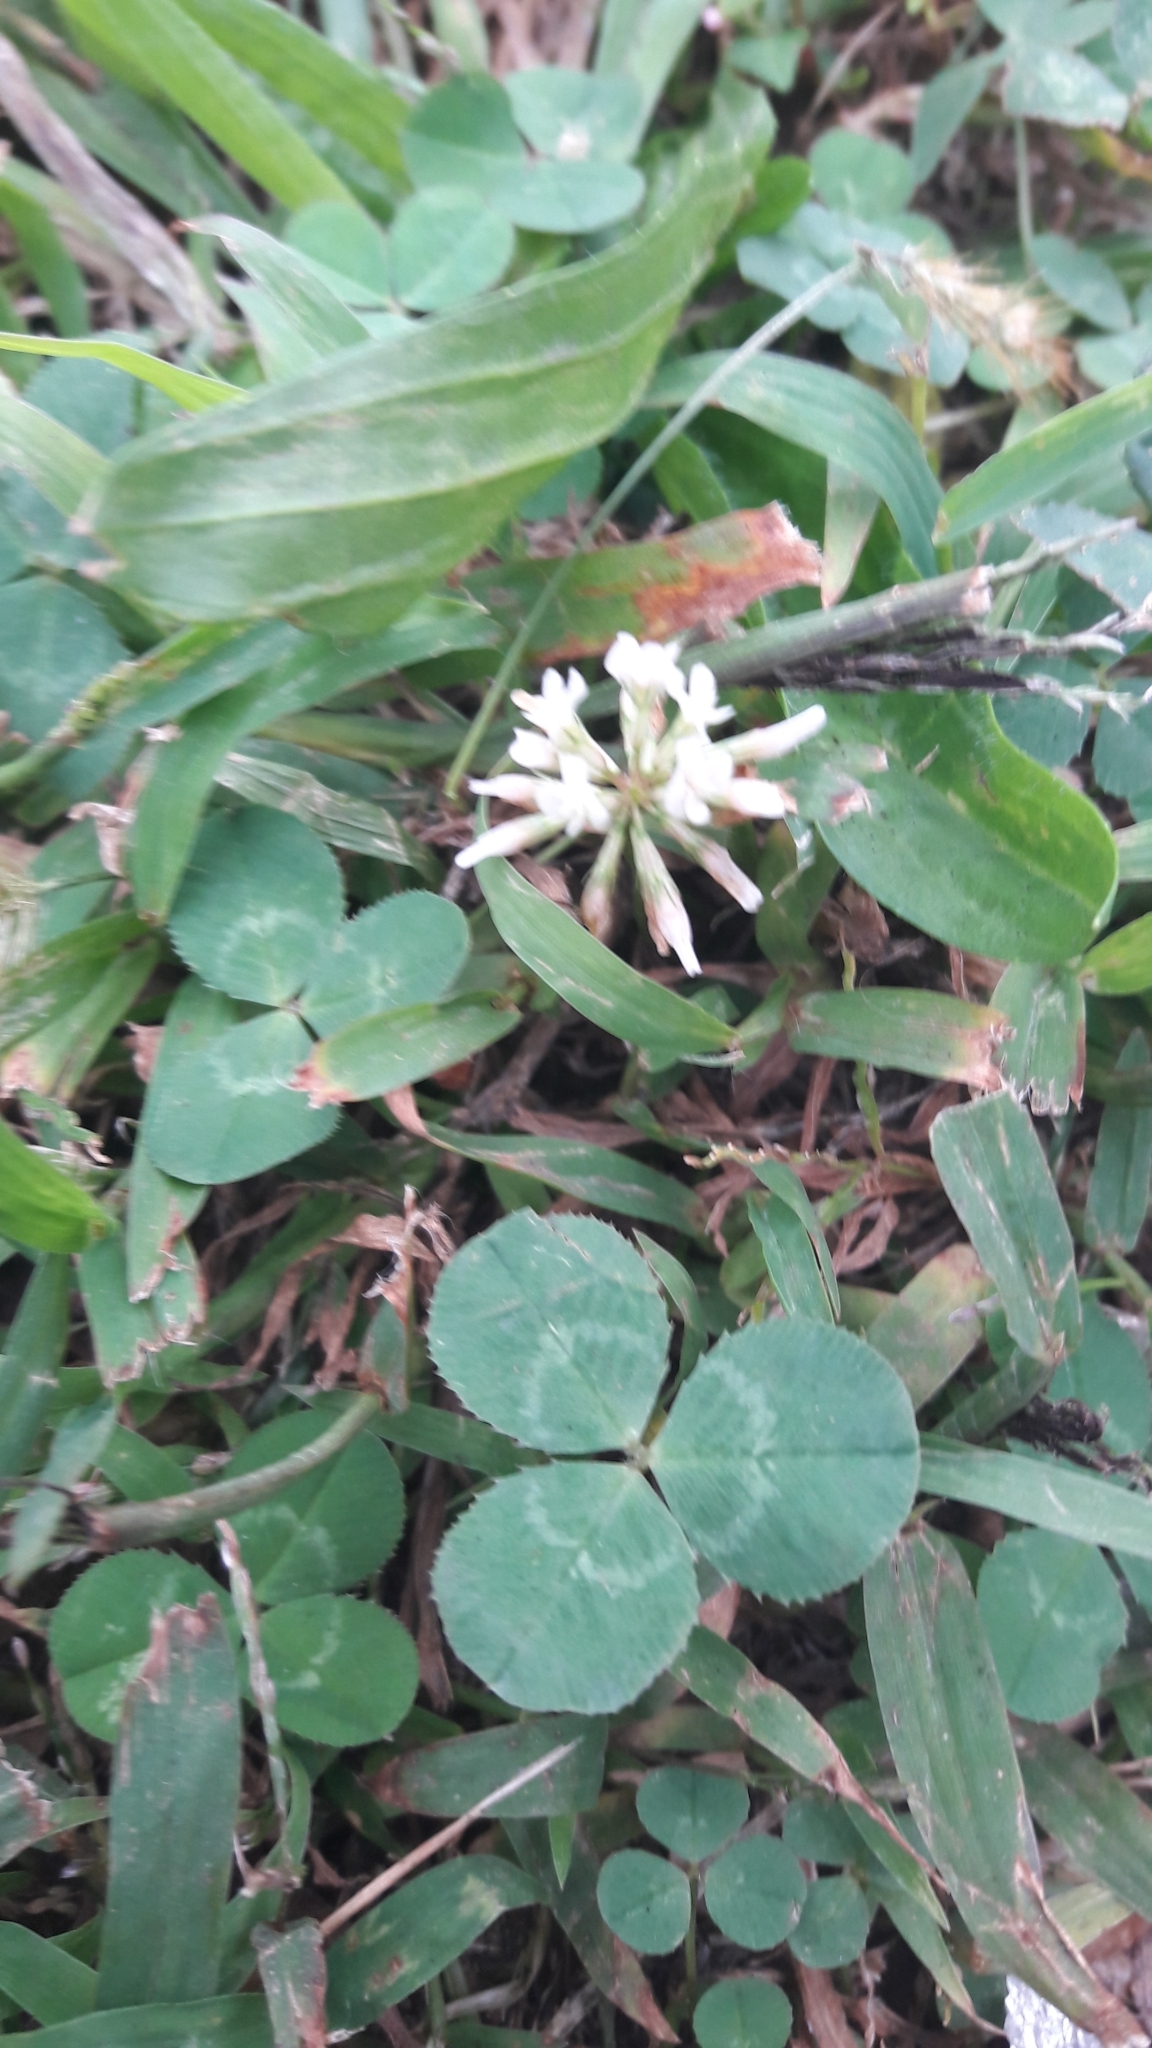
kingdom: Plantae
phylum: Tracheophyta
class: Magnoliopsida
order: Fabales
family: Fabaceae
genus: Trifolium
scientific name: Trifolium repens
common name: White clover
